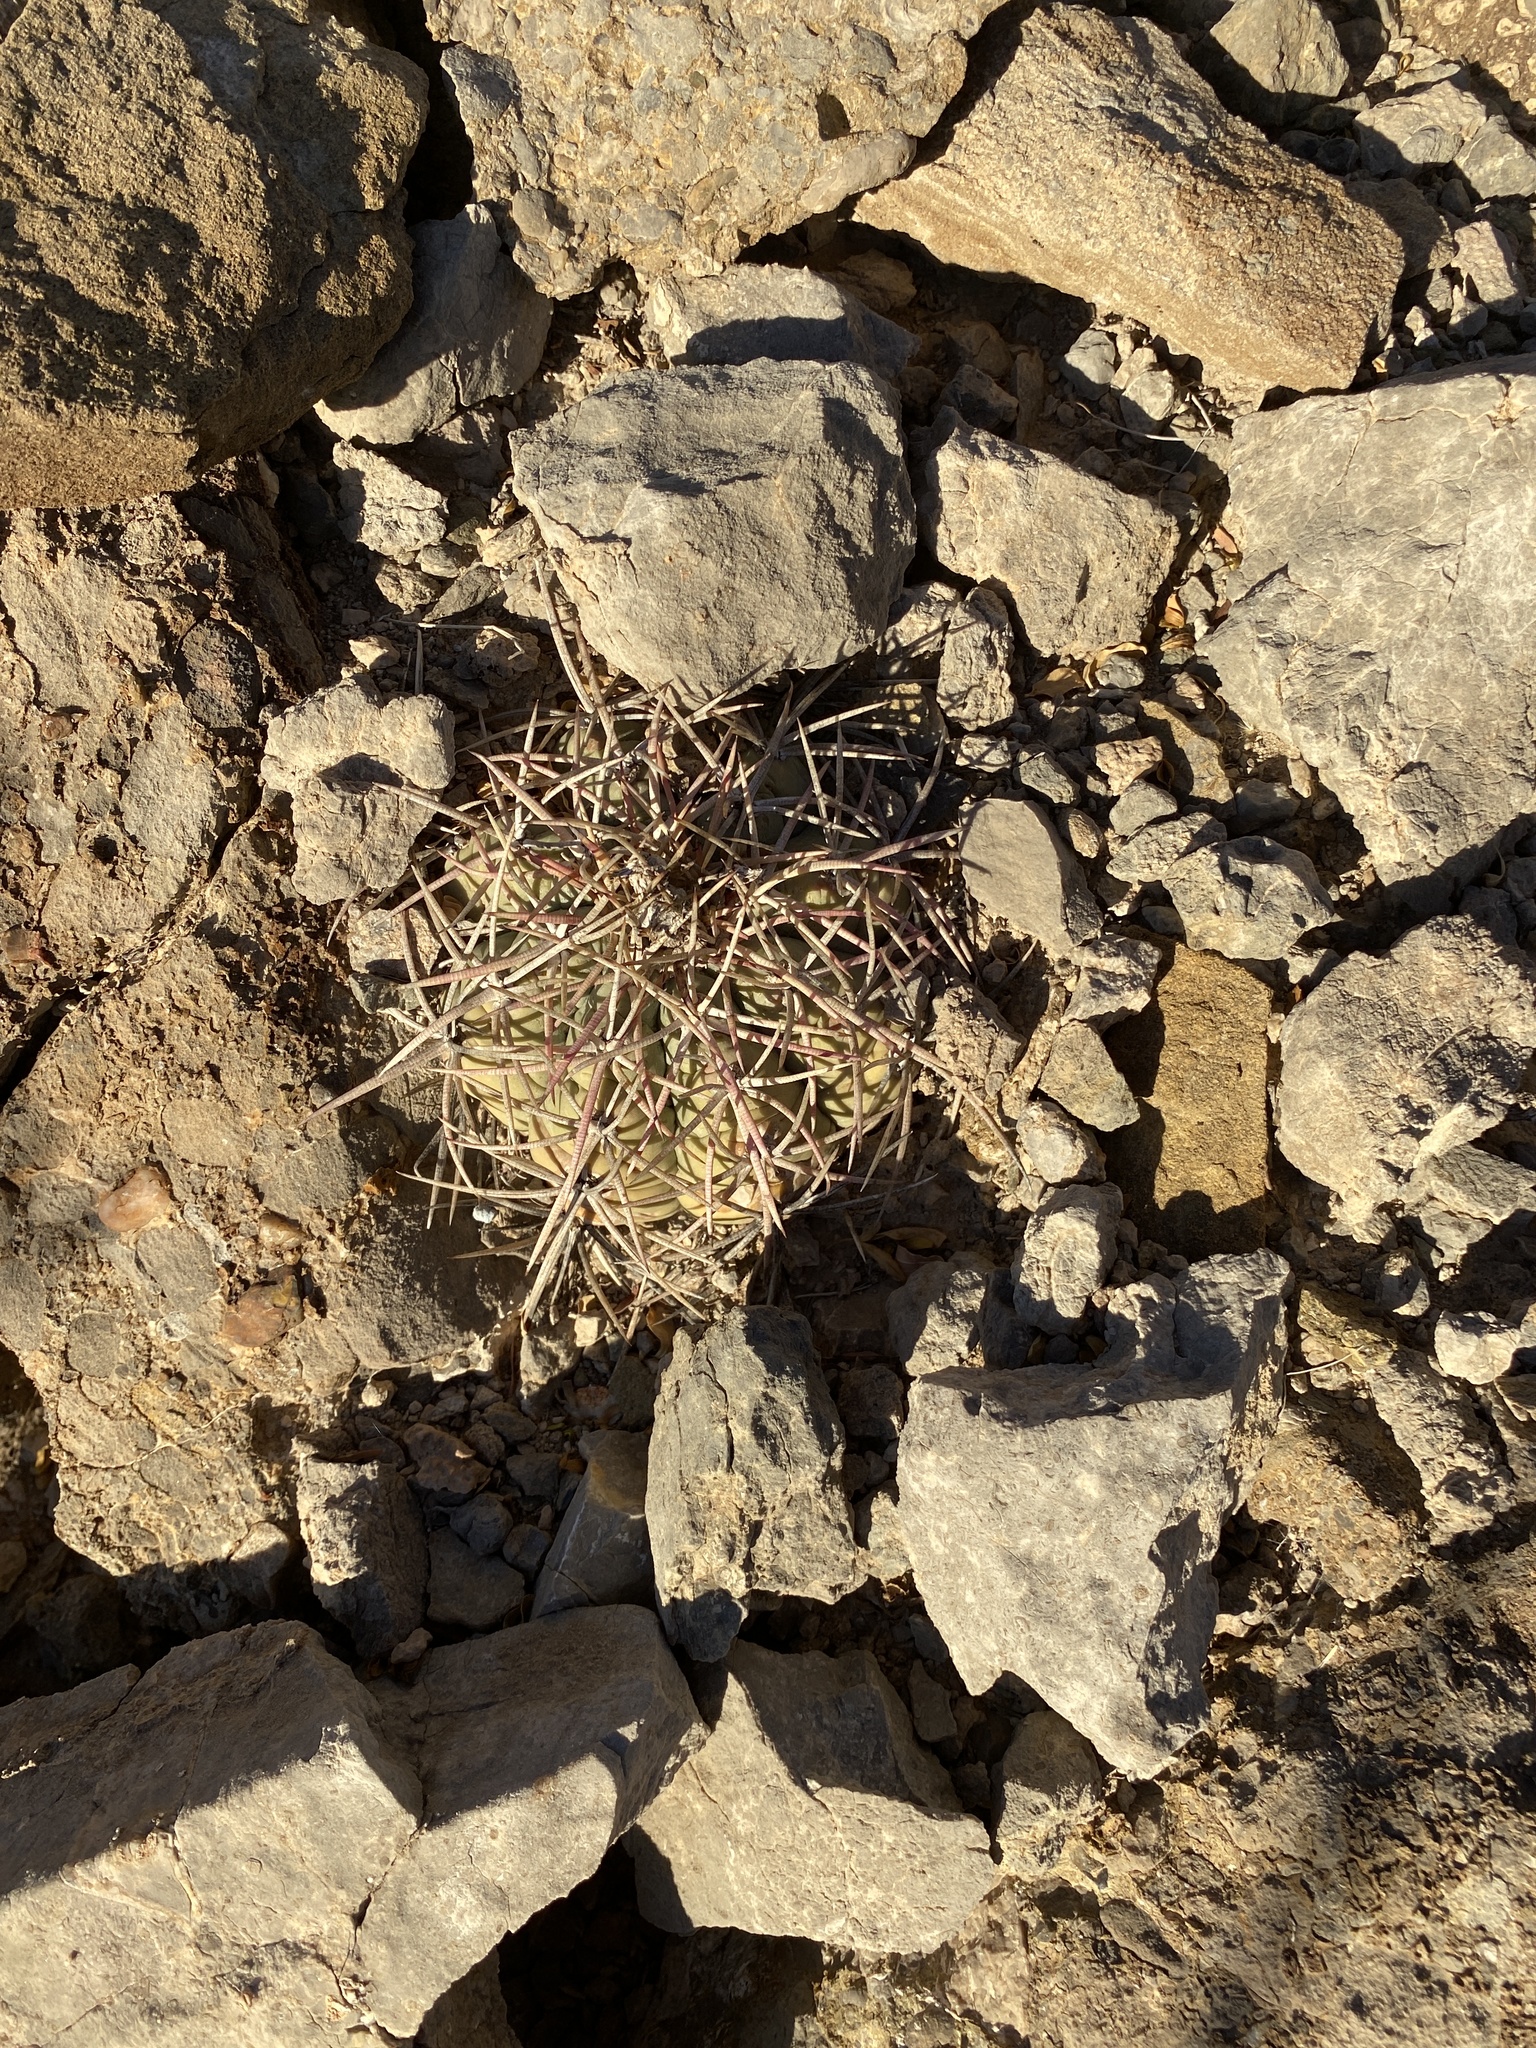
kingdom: Plantae
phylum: Tracheophyta
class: Magnoliopsida
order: Caryophyllales
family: Cactaceae
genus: Echinocactus
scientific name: Echinocactus horizonthalonius
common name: Devilshead
